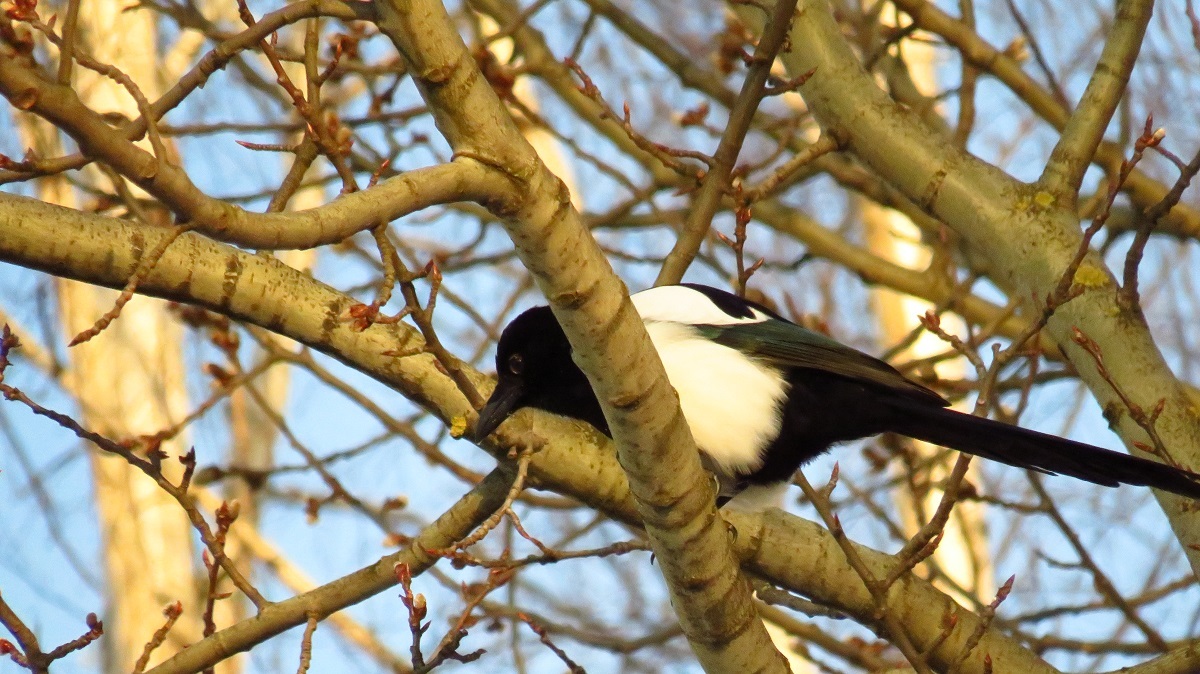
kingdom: Animalia
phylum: Chordata
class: Aves
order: Passeriformes
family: Corvidae
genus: Pica
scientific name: Pica pica
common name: Eurasian magpie
